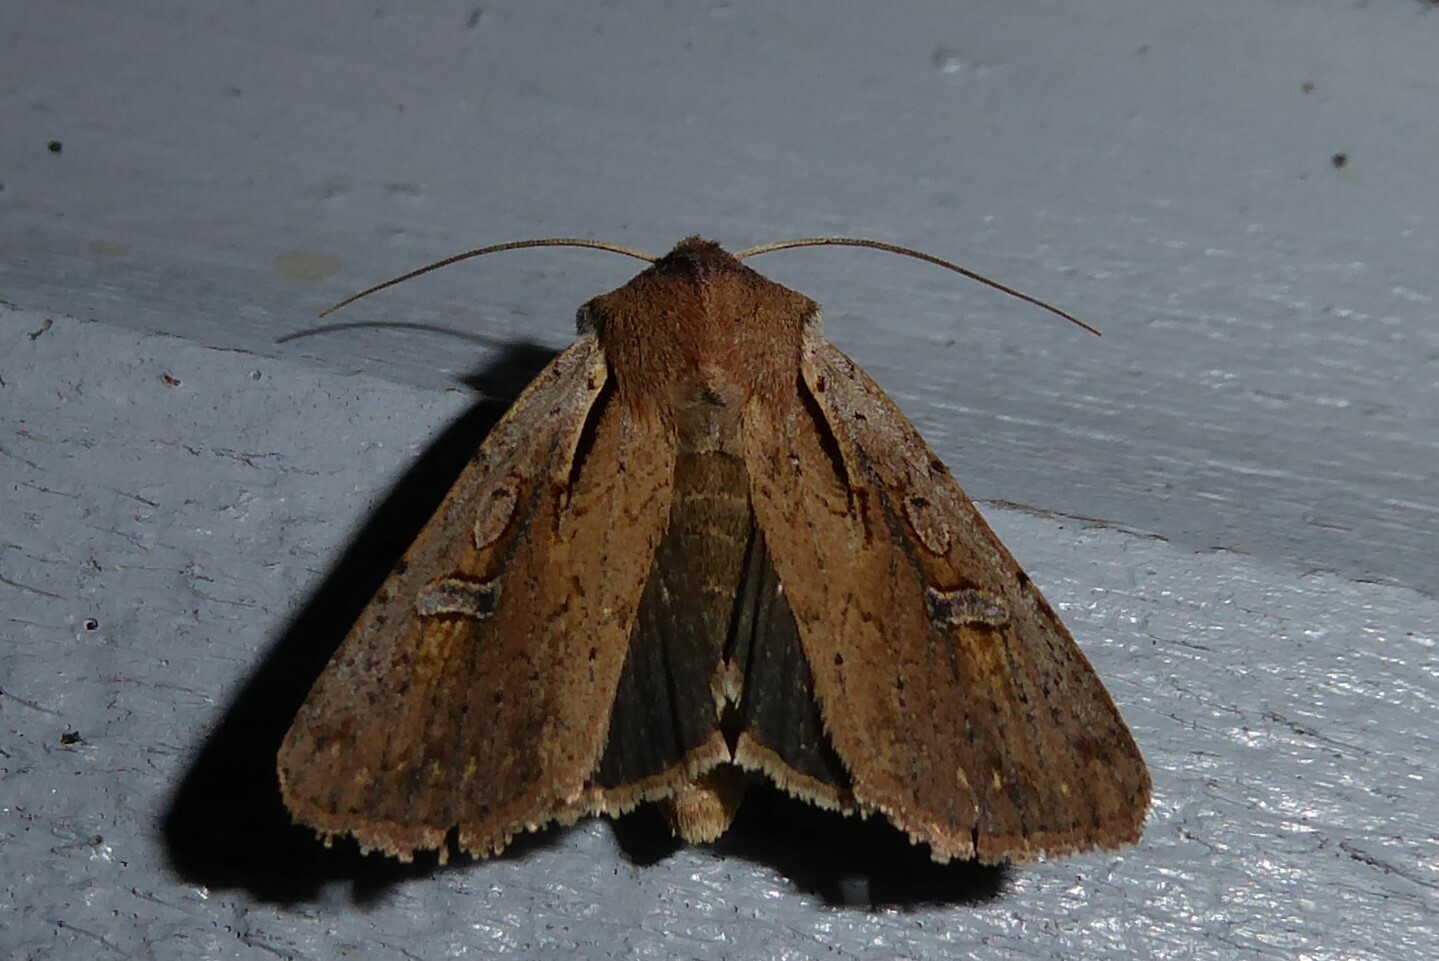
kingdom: Animalia
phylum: Arthropoda
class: Insecta
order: Lepidoptera
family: Noctuidae
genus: Ichneutica
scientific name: Ichneutica atristriga
